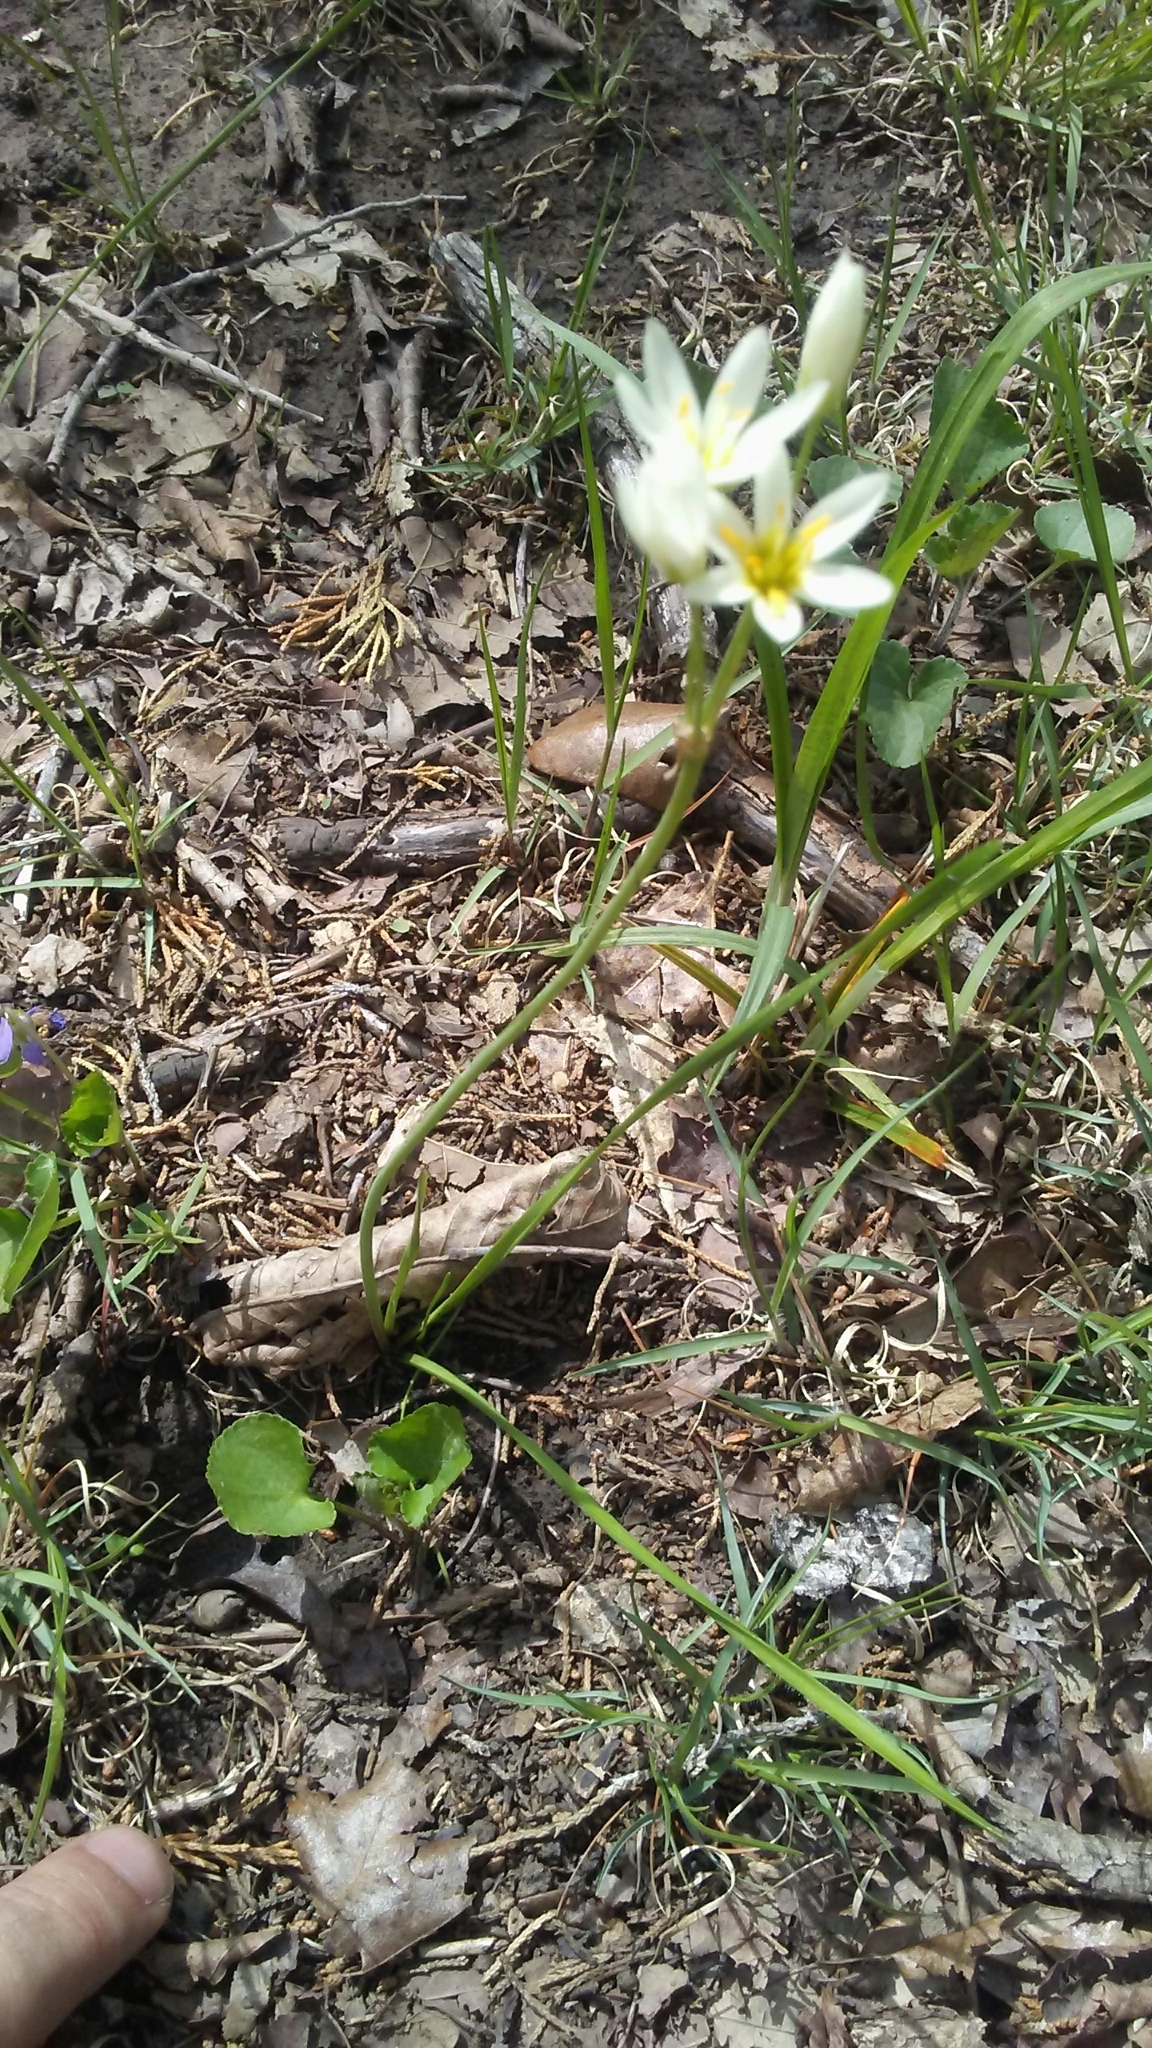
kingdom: Plantae
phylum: Tracheophyta
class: Liliopsida
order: Asparagales
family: Amaryllidaceae
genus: Nothoscordum
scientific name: Nothoscordum bivalve
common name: Crow-poison
